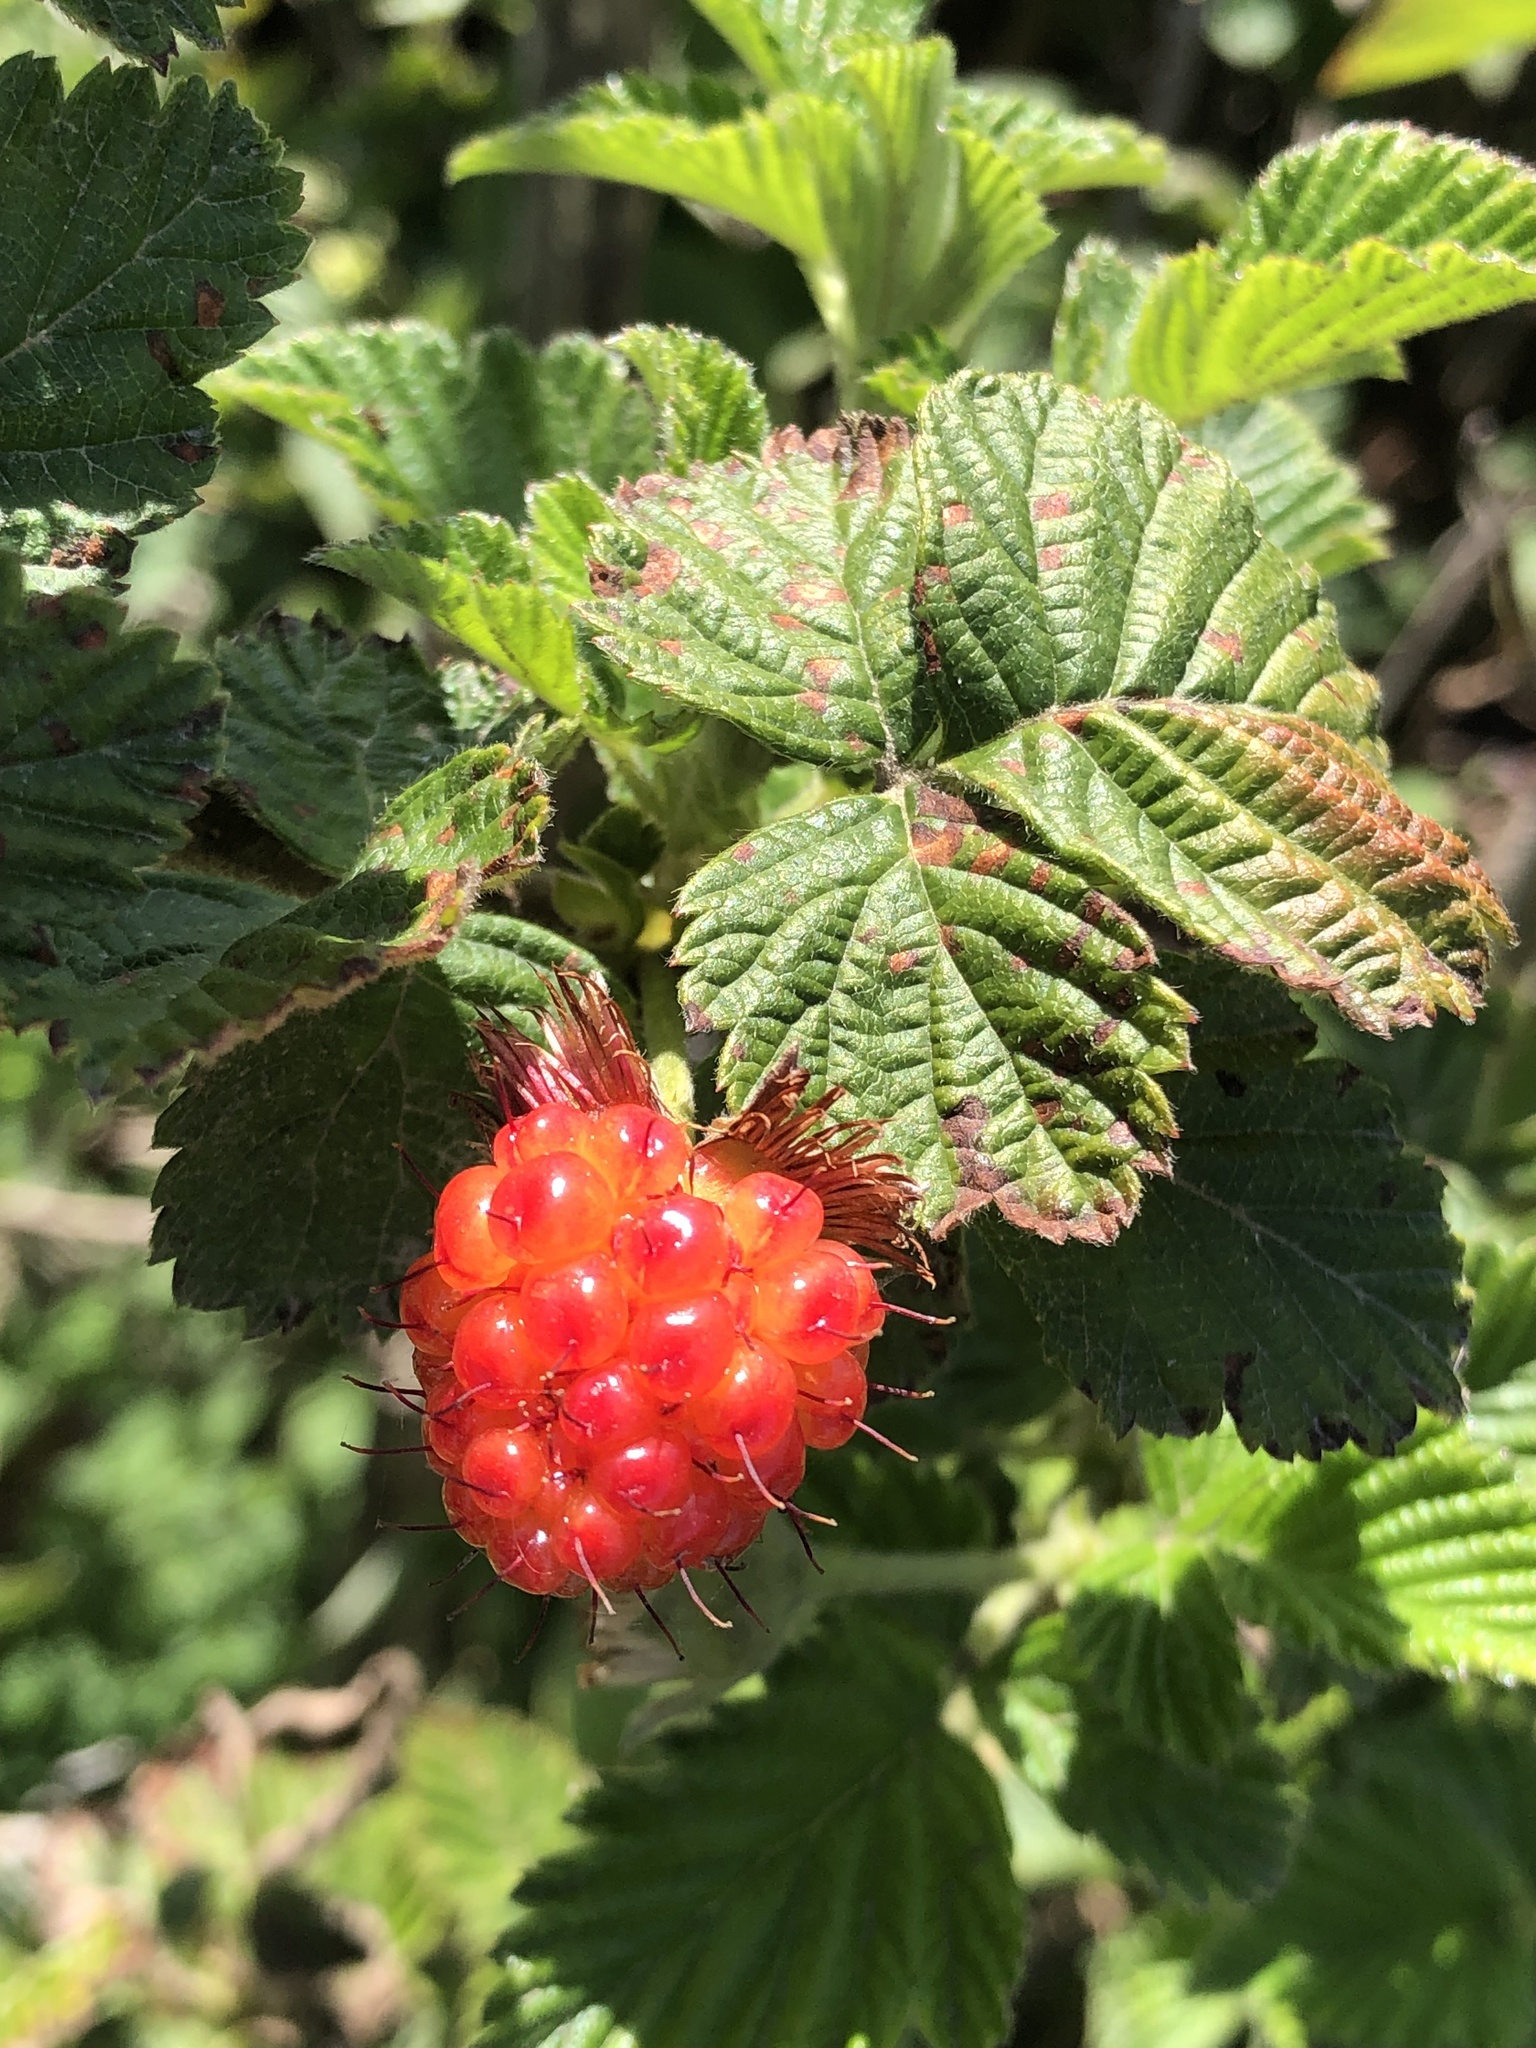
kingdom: Plantae
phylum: Tracheophyta
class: Magnoliopsida
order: Rosales
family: Rosaceae
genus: Rubus
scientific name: Rubus spectabilis
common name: Salmonberry
